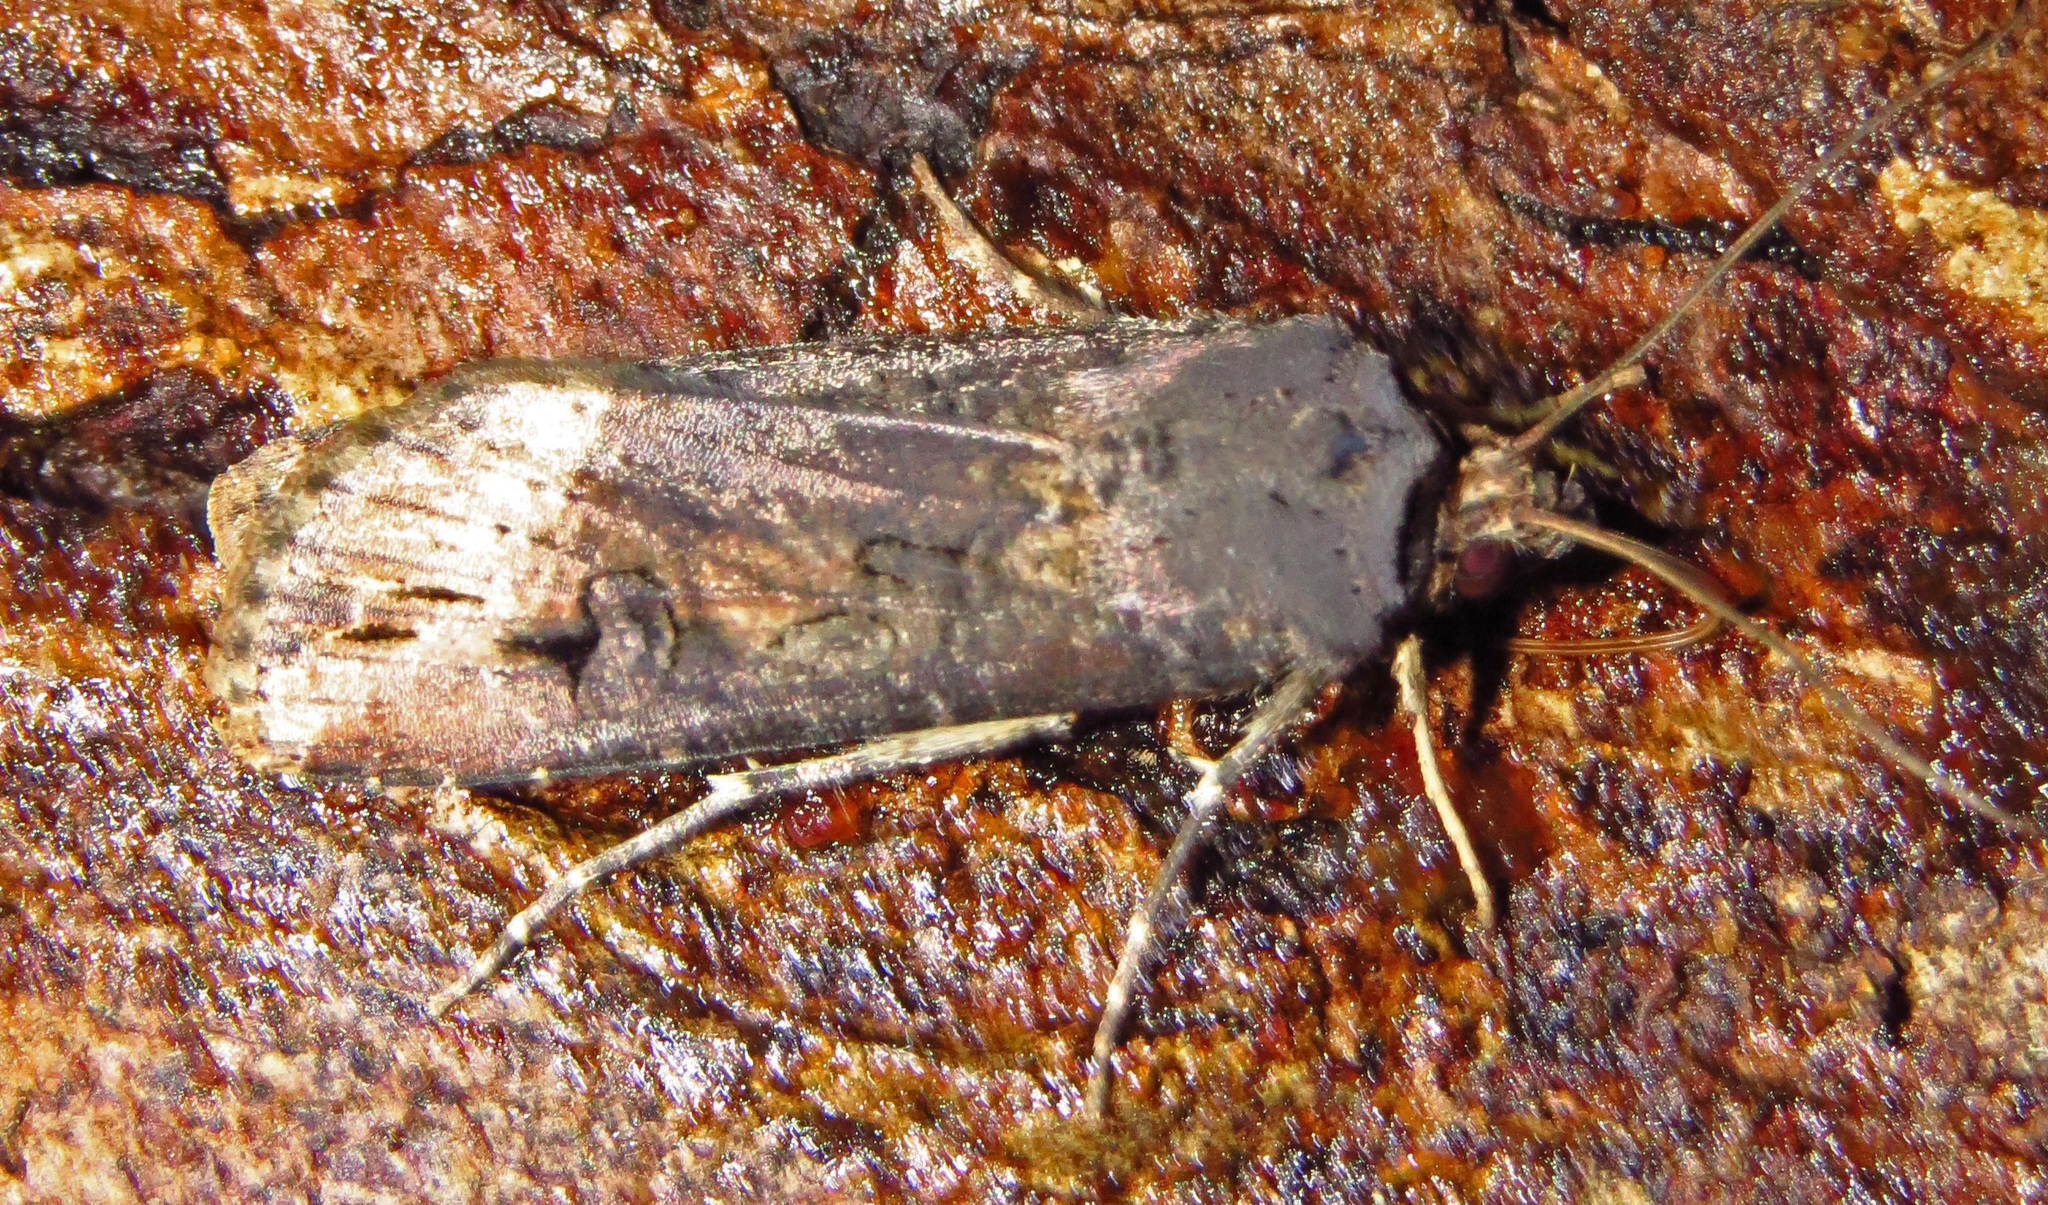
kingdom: Animalia
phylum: Arthropoda
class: Insecta
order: Lepidoptera
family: Noctuidae
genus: Agrotis
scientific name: Agrotis ipsilon
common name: Dark sword-grass
